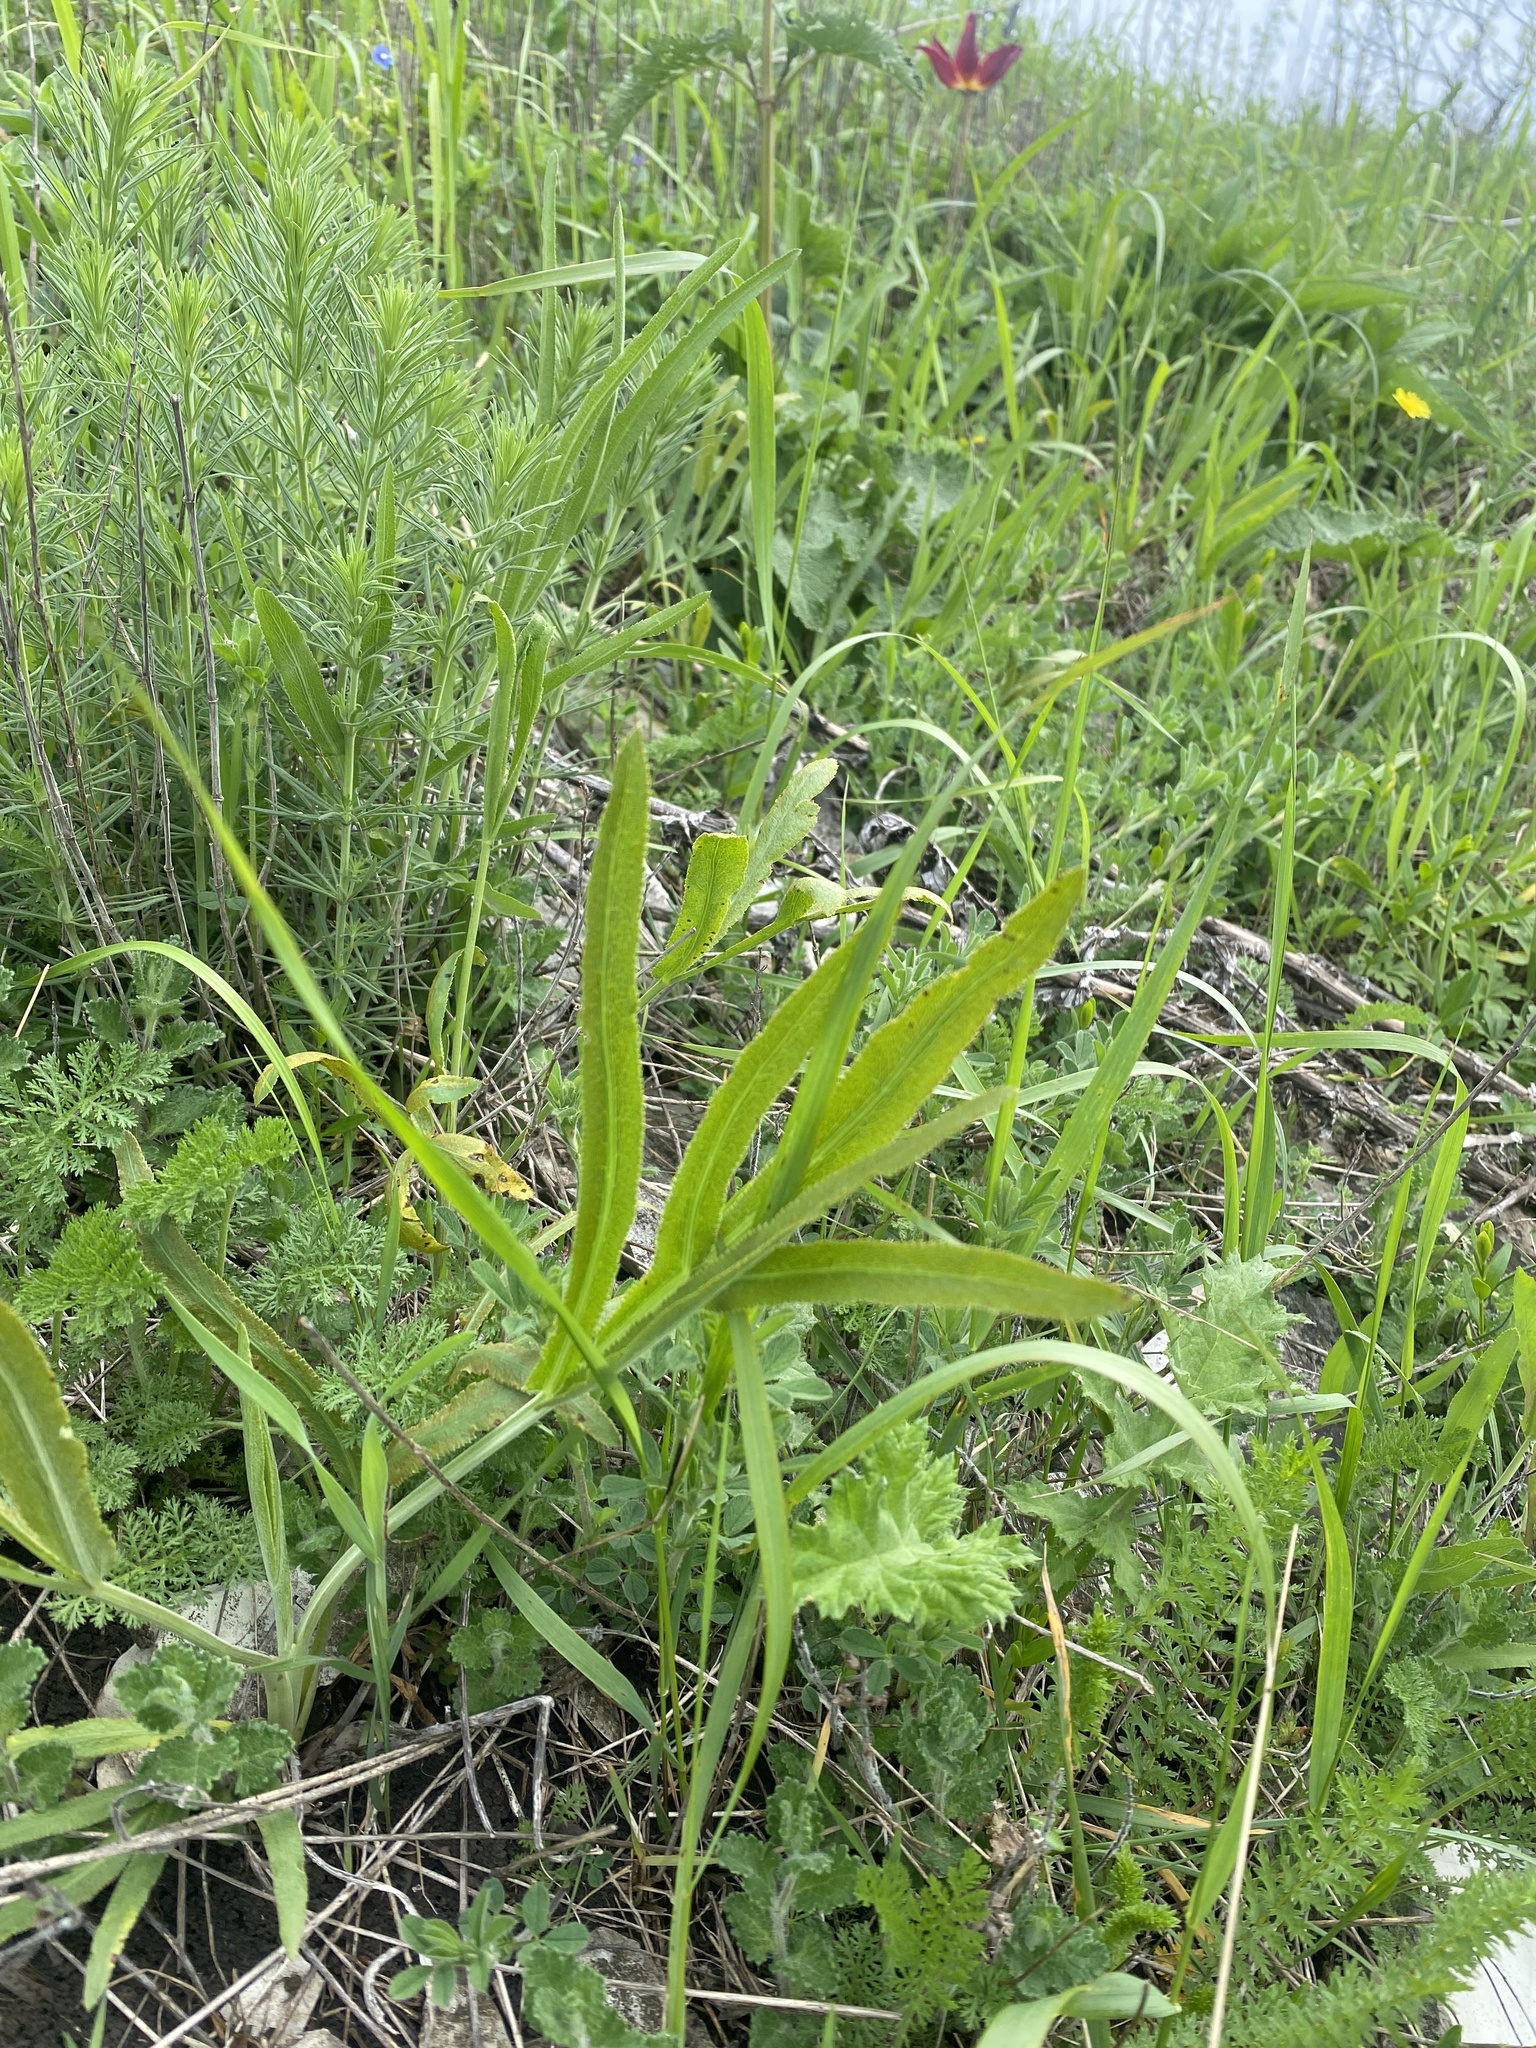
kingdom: Plantae
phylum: Tracheophyta
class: Magnoliopsida
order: Apiales
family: Apiaceae
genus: Falcaria
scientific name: Falcaria vulgaris
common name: Longleaf
